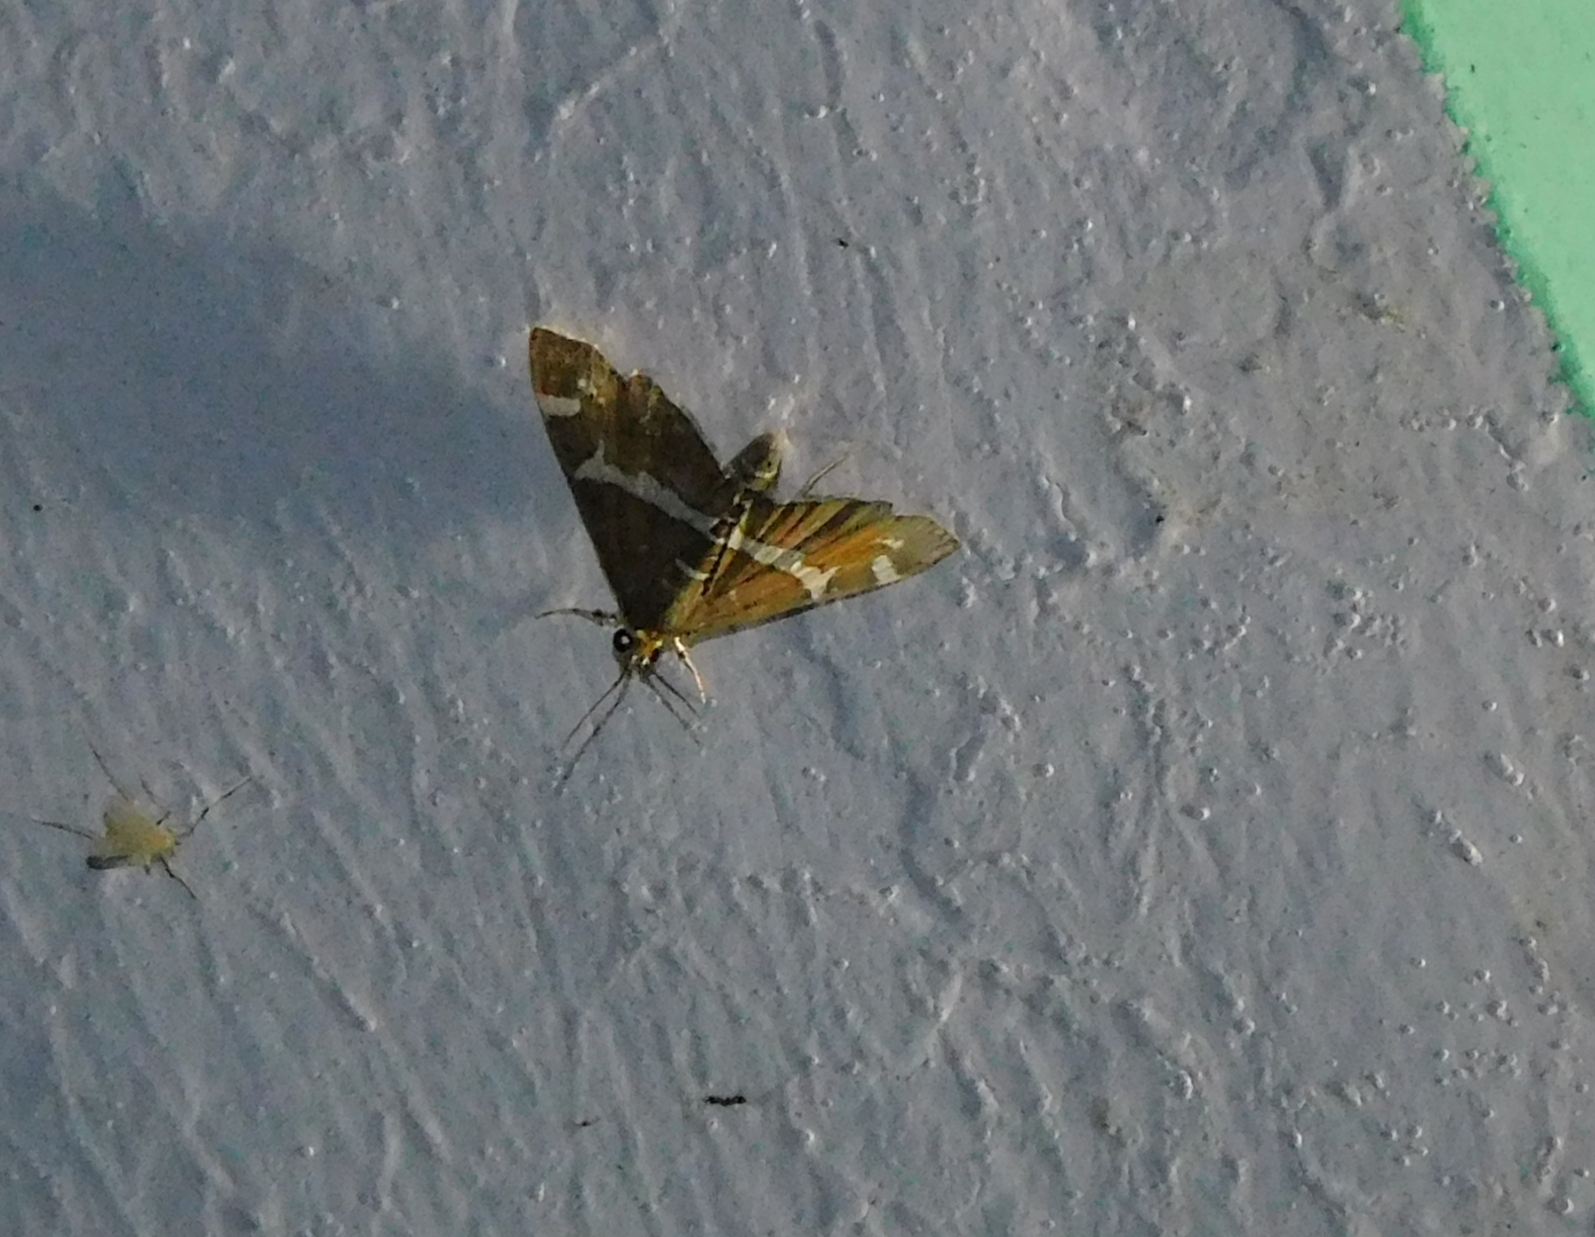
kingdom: Animalia
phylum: Arthropoda
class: Insecta
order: Lepidoptera
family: Crambidae
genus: Spoladea
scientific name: Spoladea recurvalis
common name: Beet webworm moth
